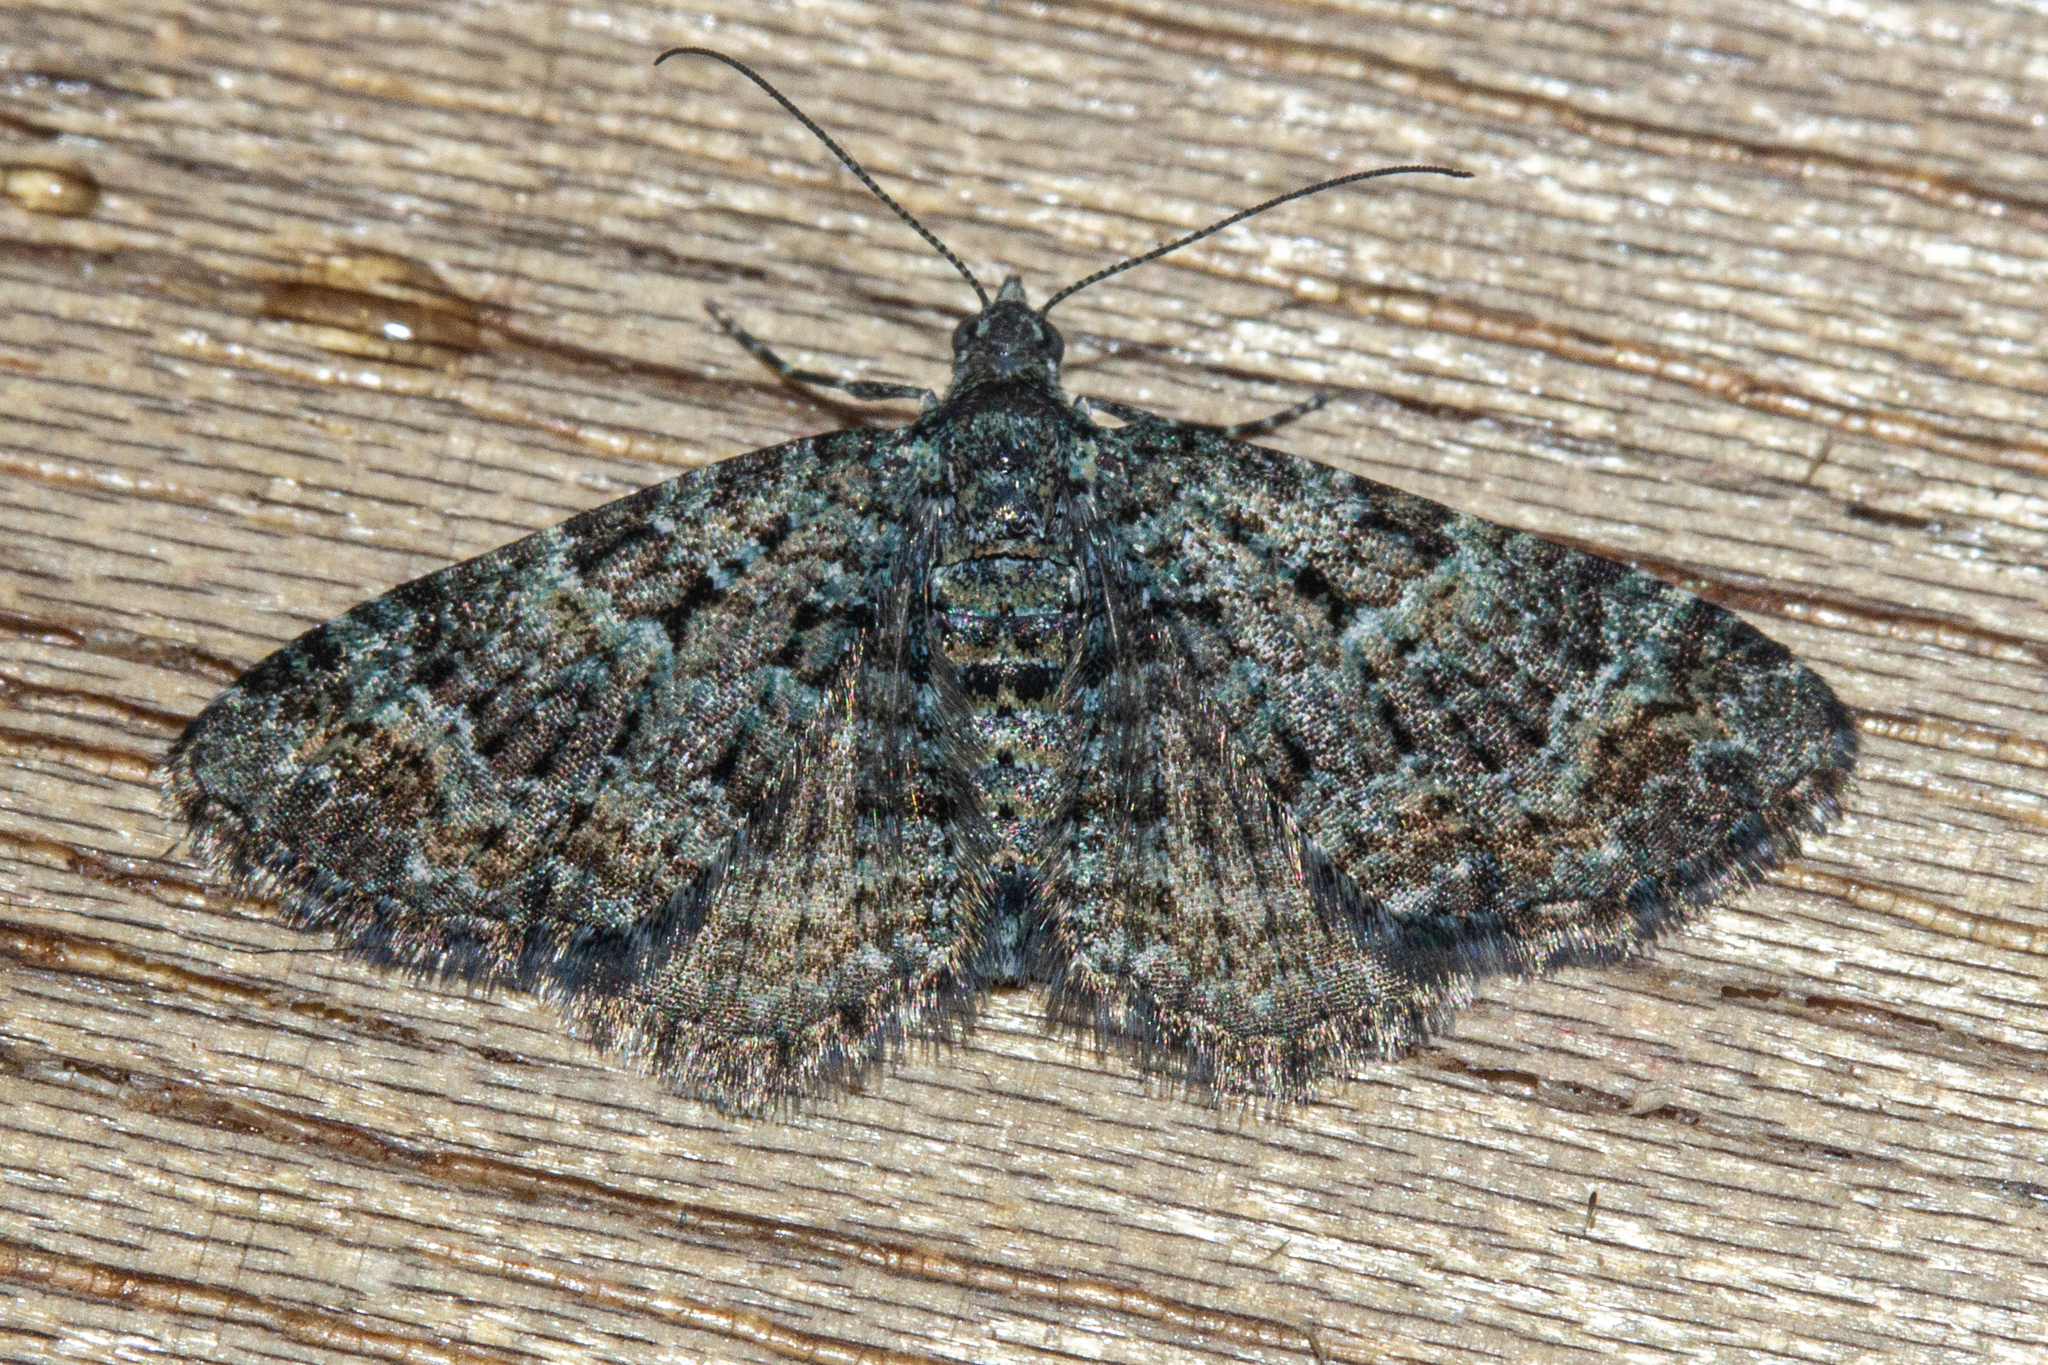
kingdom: Animalia
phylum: Arthropoda
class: Insecta
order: Lepidoptera
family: Geometridae
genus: Chloroclystis
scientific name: Chloroclystis nereis
